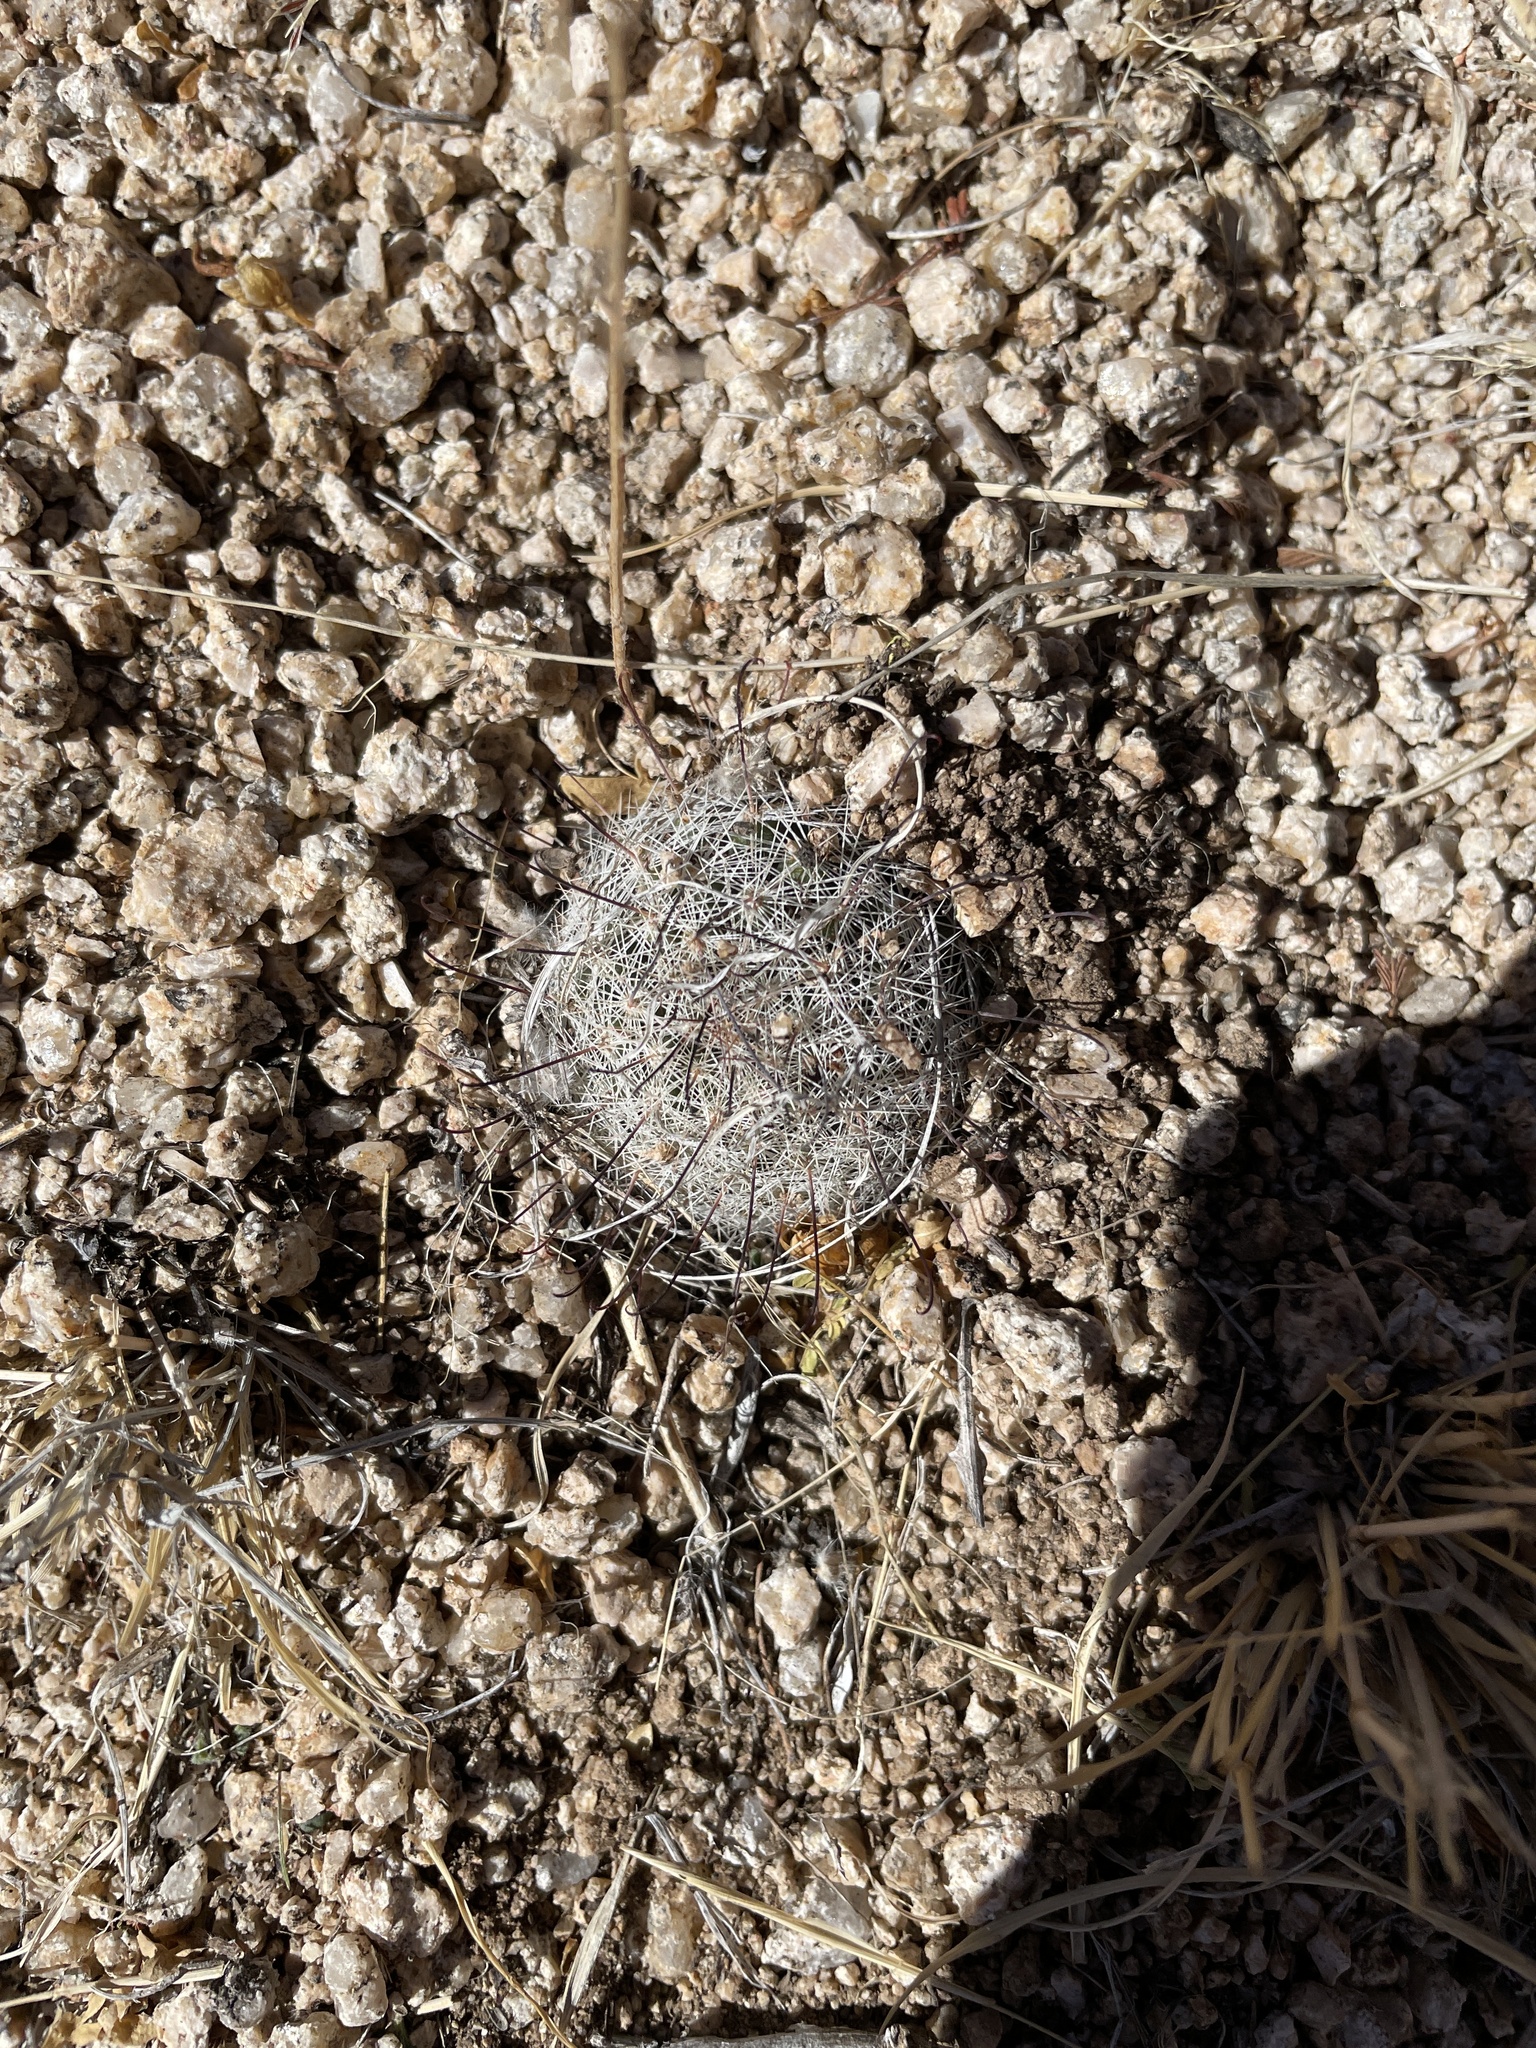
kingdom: Plantae
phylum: Tracheophyta
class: Magnoliopsida
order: Caryophyllales
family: Cactaceae
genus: Cochemiea
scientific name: Cochemiea grahamii
